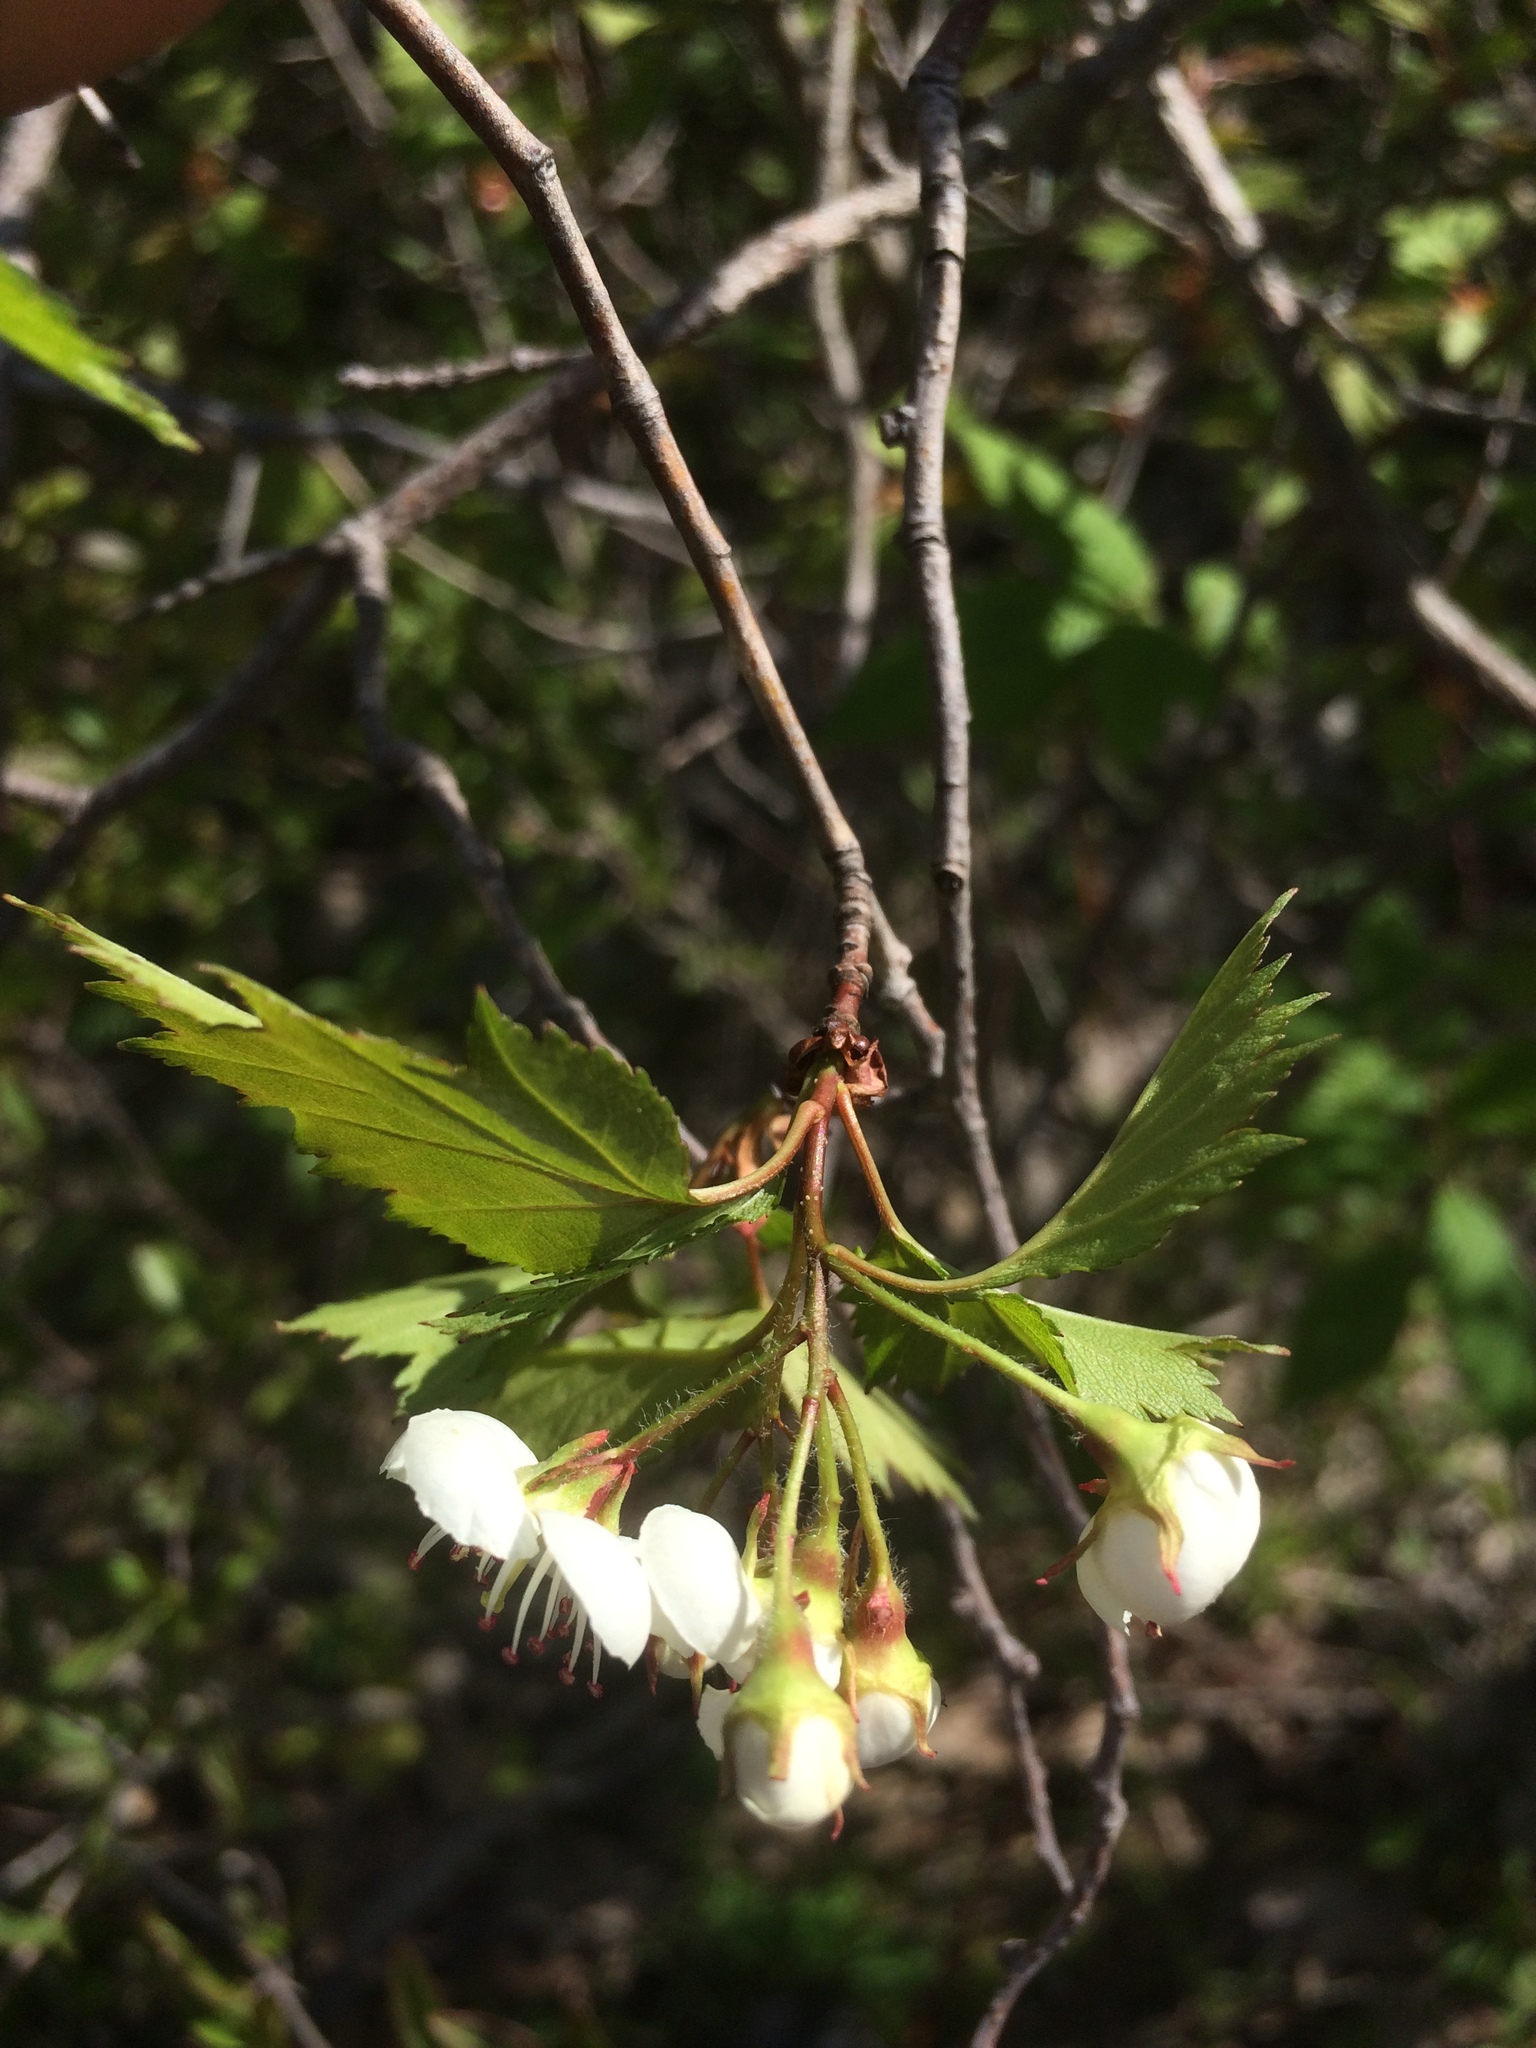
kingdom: Plantae
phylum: Tracheophyta
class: Magnoliopsida
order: Rosales
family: Rosaceae
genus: Crataegus
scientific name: Crataegus flabellata
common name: Bosc's hawthorn
